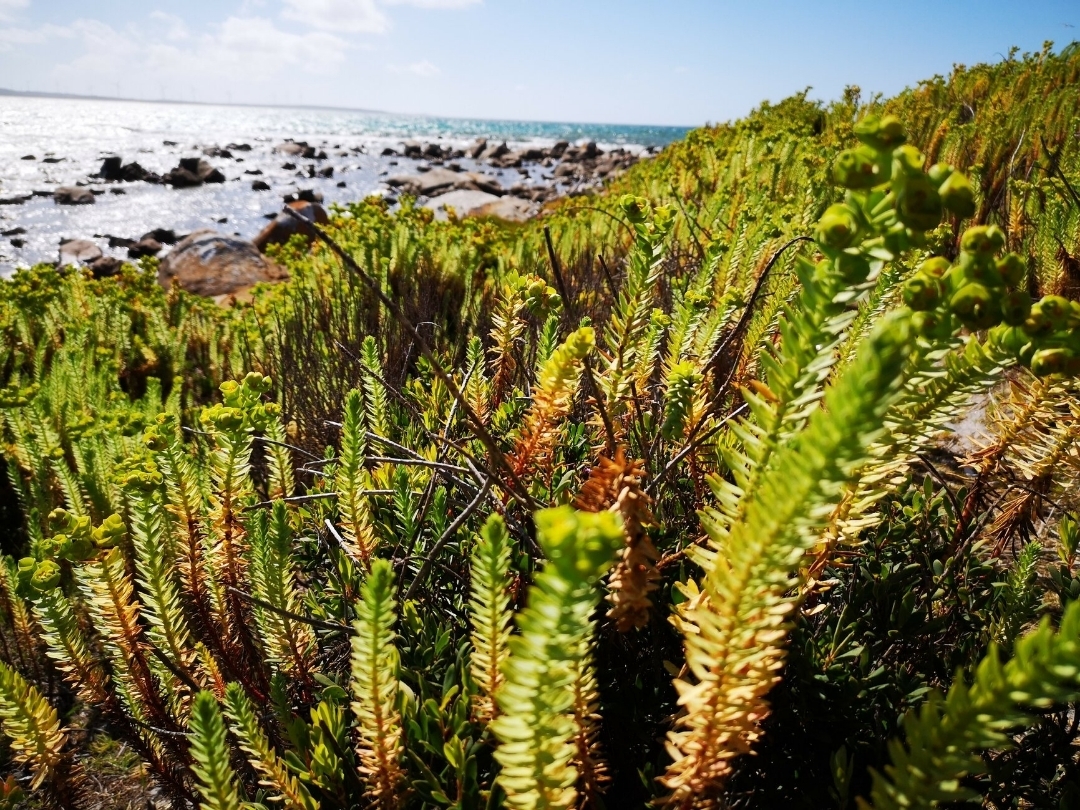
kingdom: Plantae
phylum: Tracheophyta
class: Magnoliopsida
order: Malpighiales
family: Euphorbiaceae
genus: Euphorbia
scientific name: Euphorbia paralias
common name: Sea spurge
